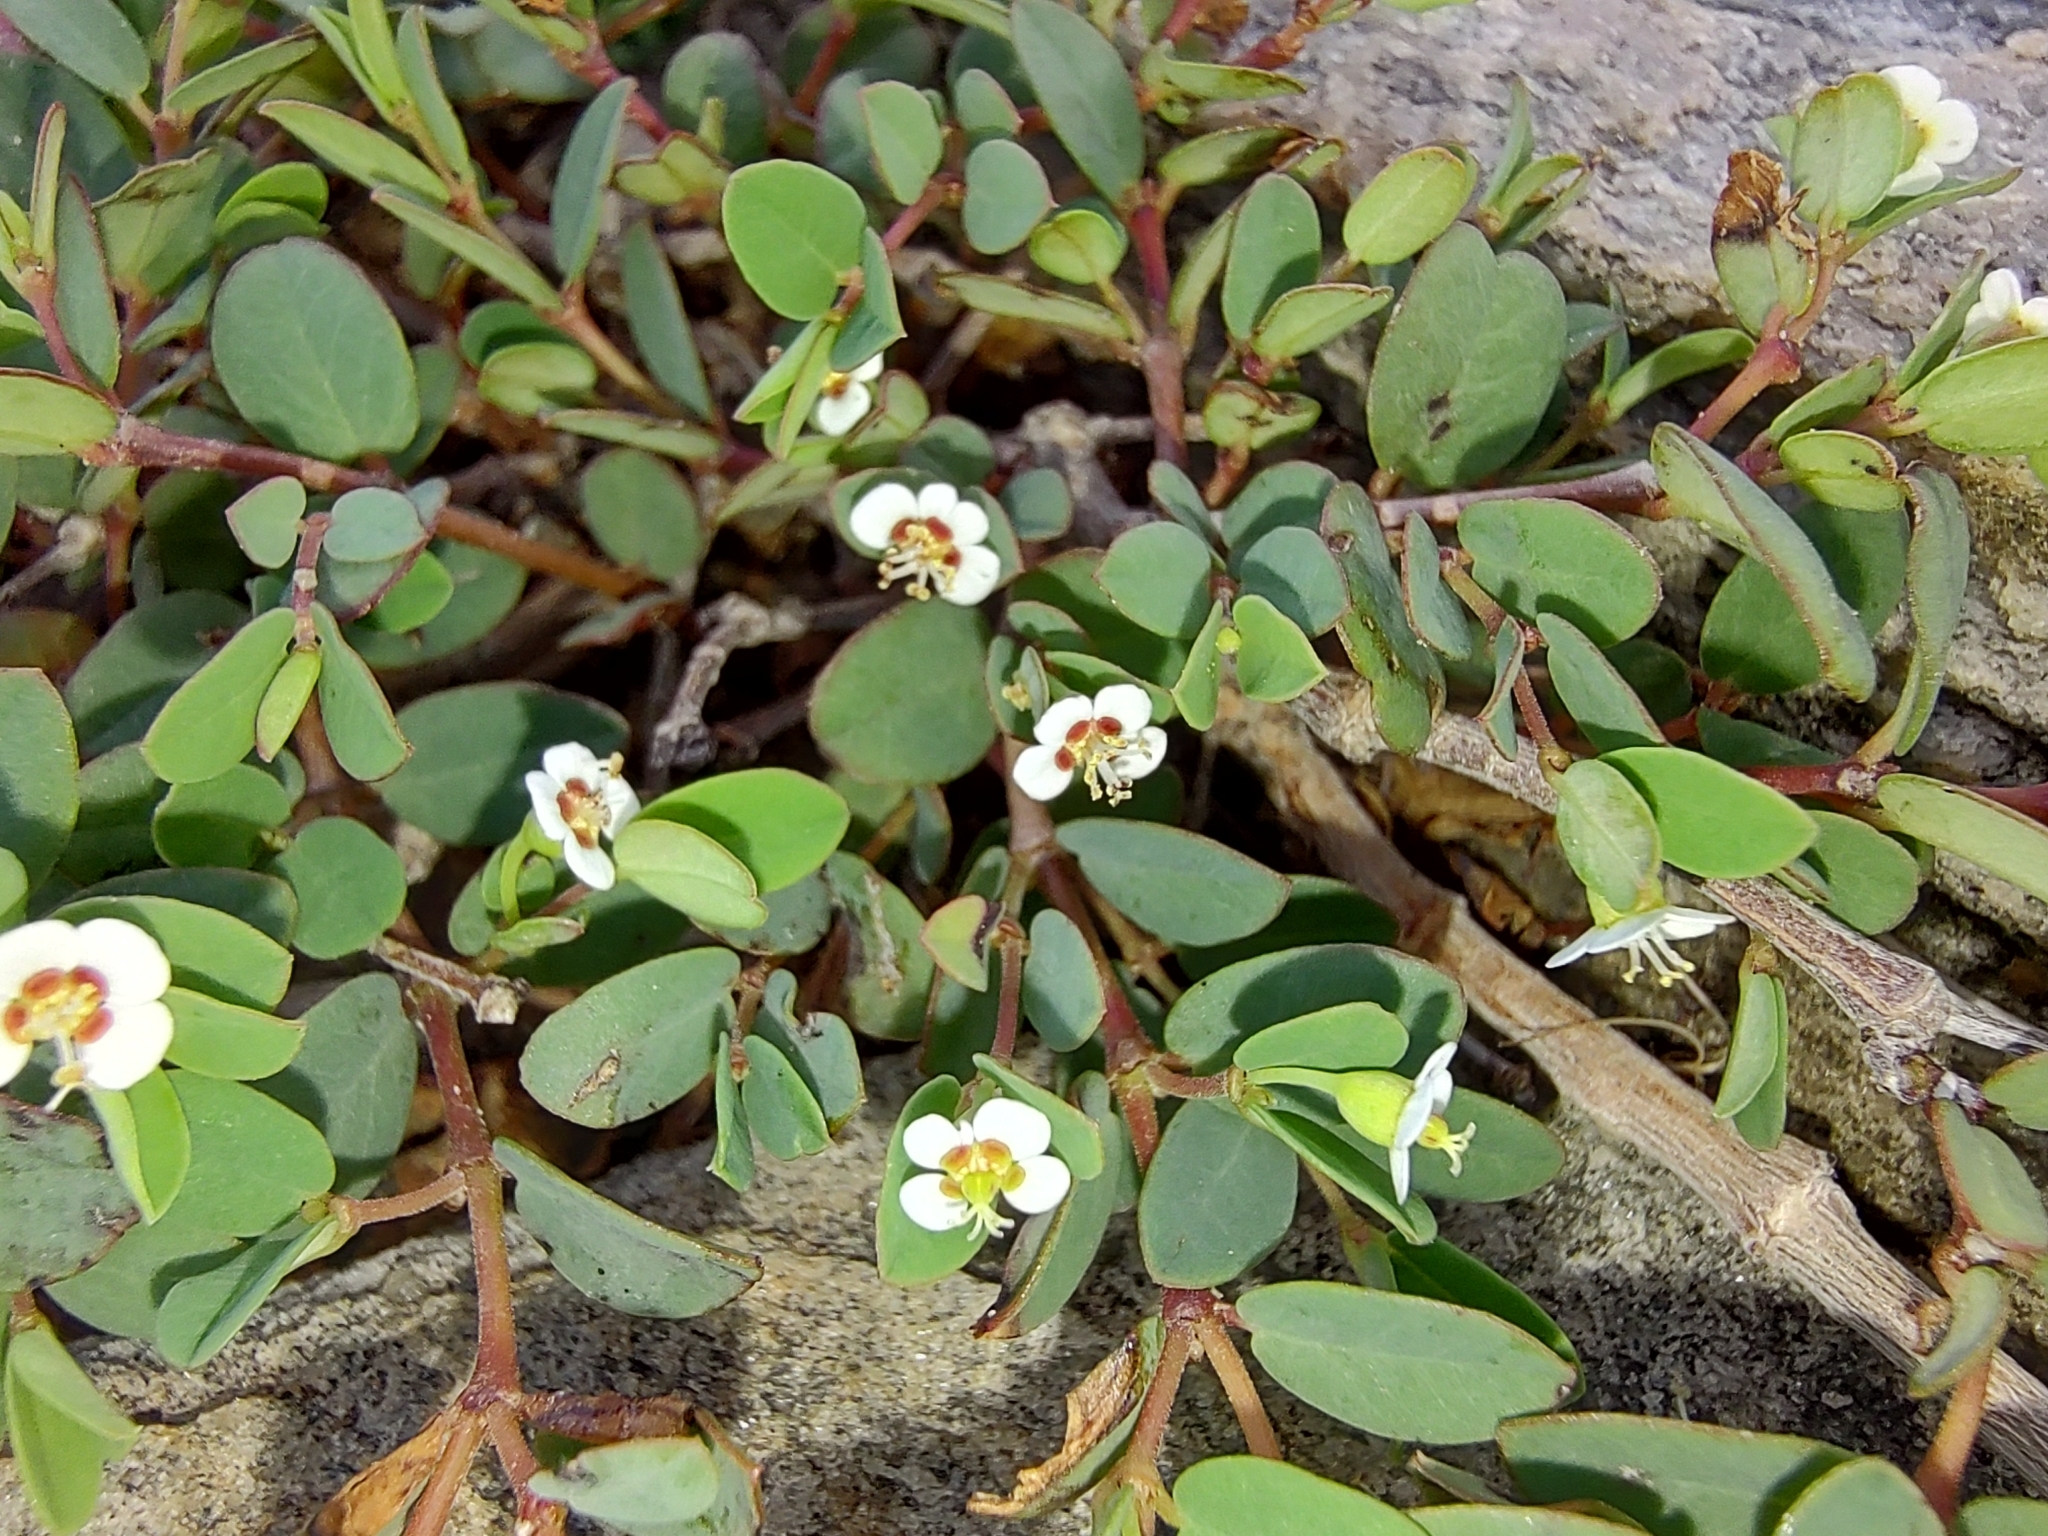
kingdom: Plantae
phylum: Tracheophyta
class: Magnoliopsida
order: Malpighiales
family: Euphorbiaceae
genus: Euphorbia
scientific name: Euphorbia magdalenae
